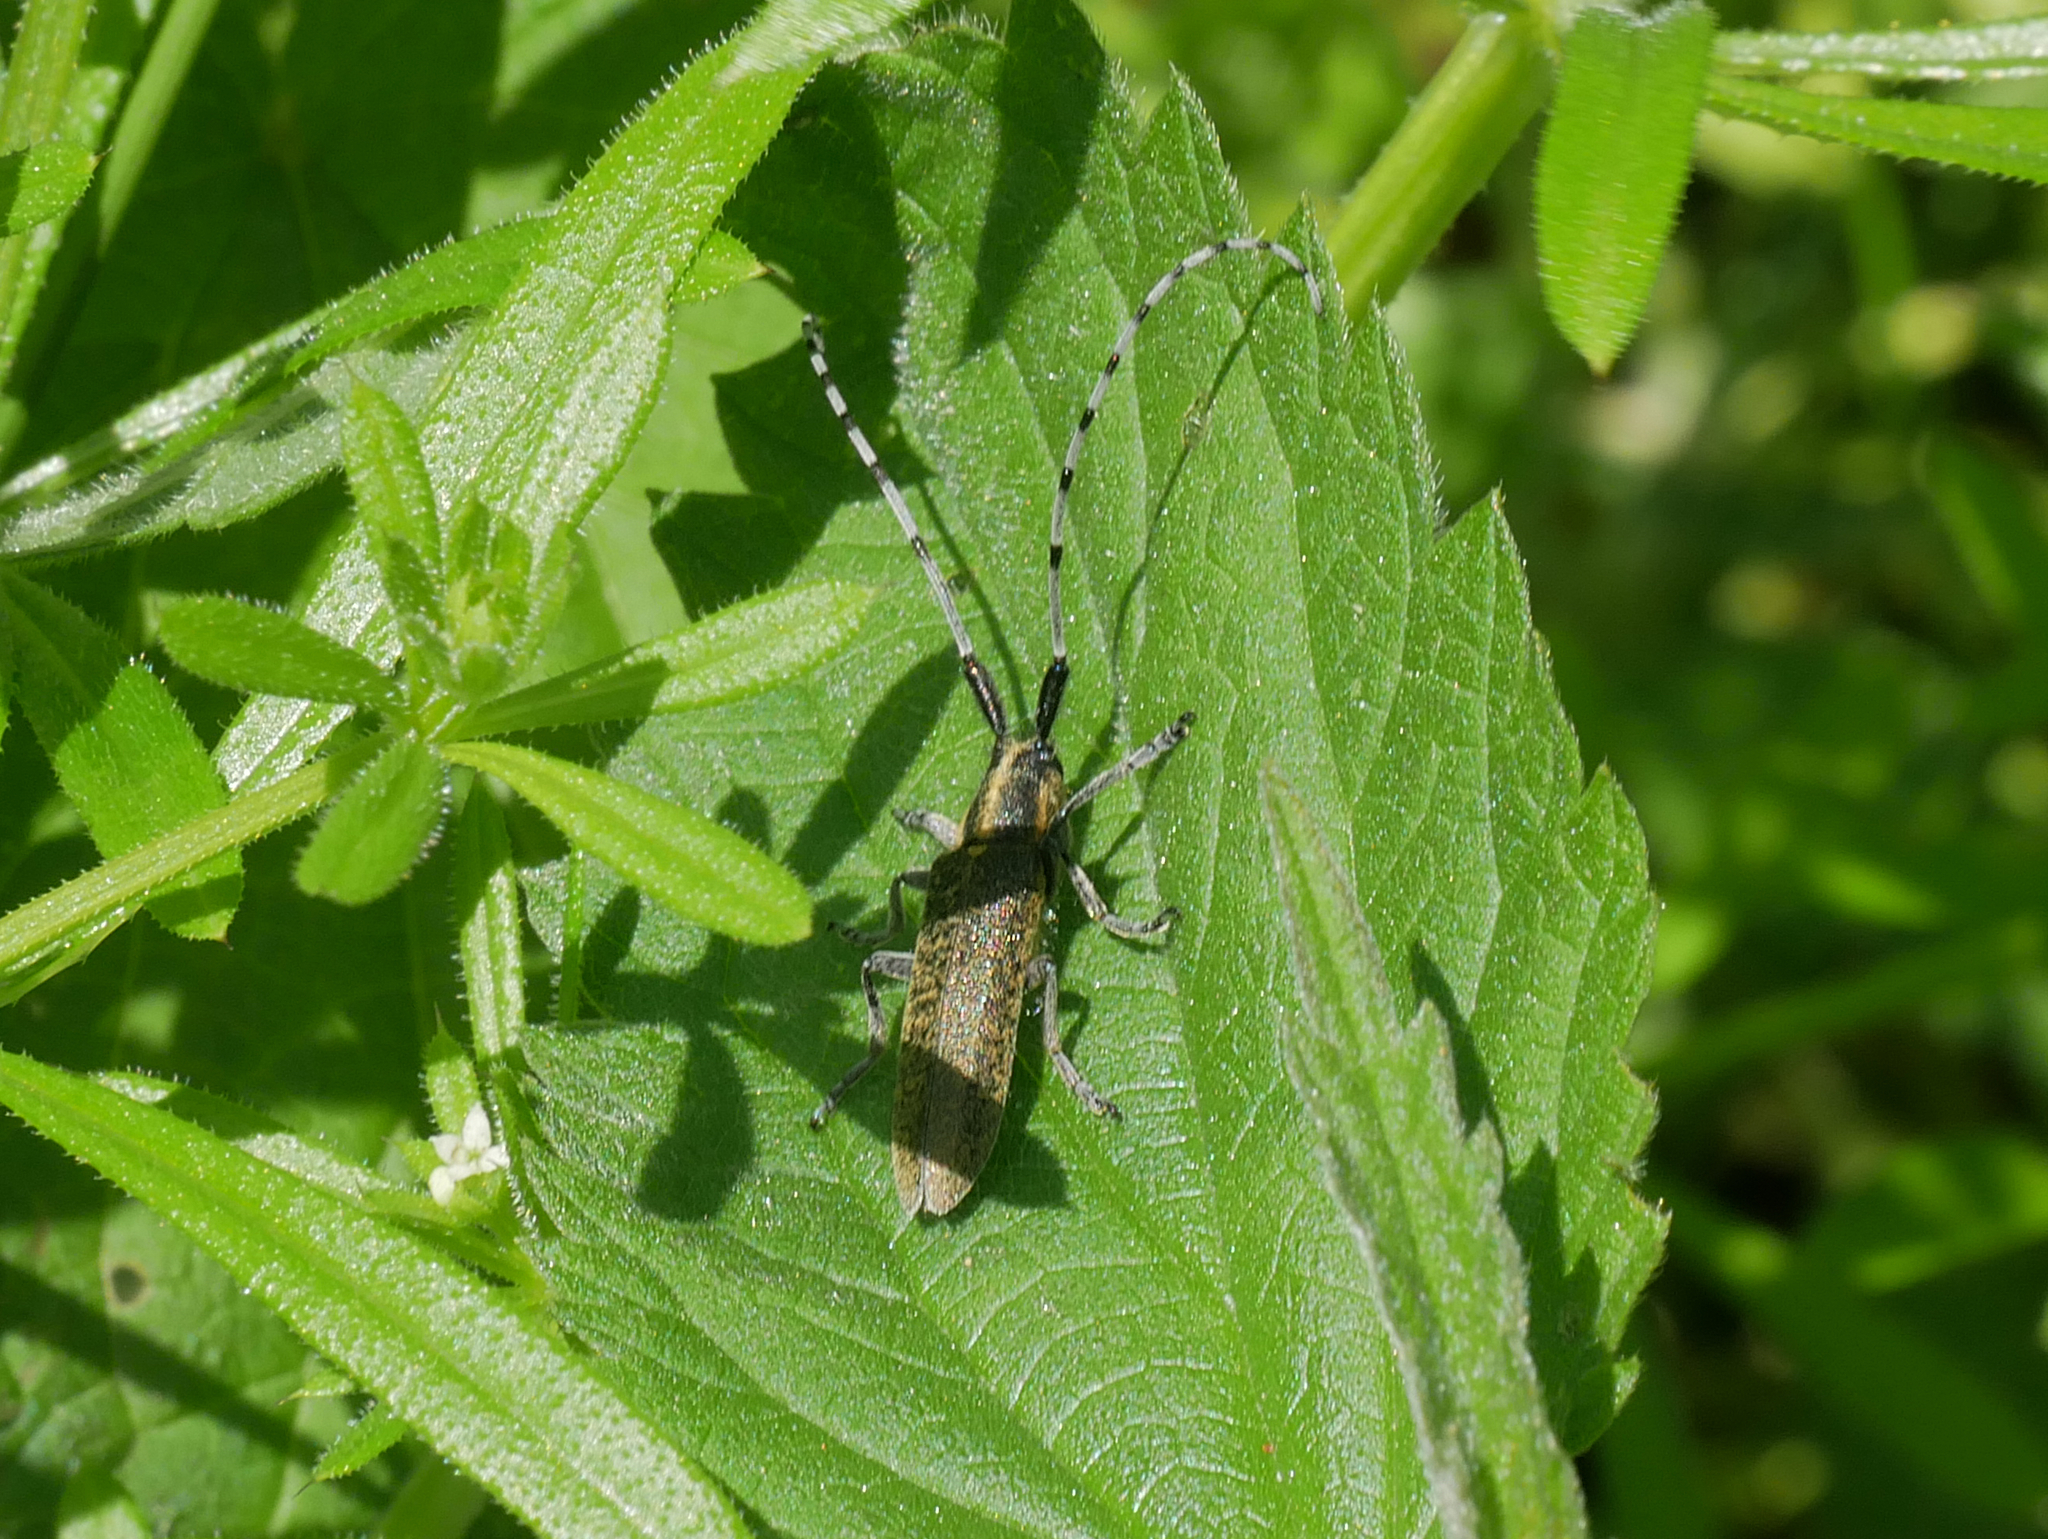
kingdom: Animalia
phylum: Arthropoda
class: Insecta
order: Coleoptera
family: Cerambycidae
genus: Agapanthia
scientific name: Agapanthia villosoviridescens
